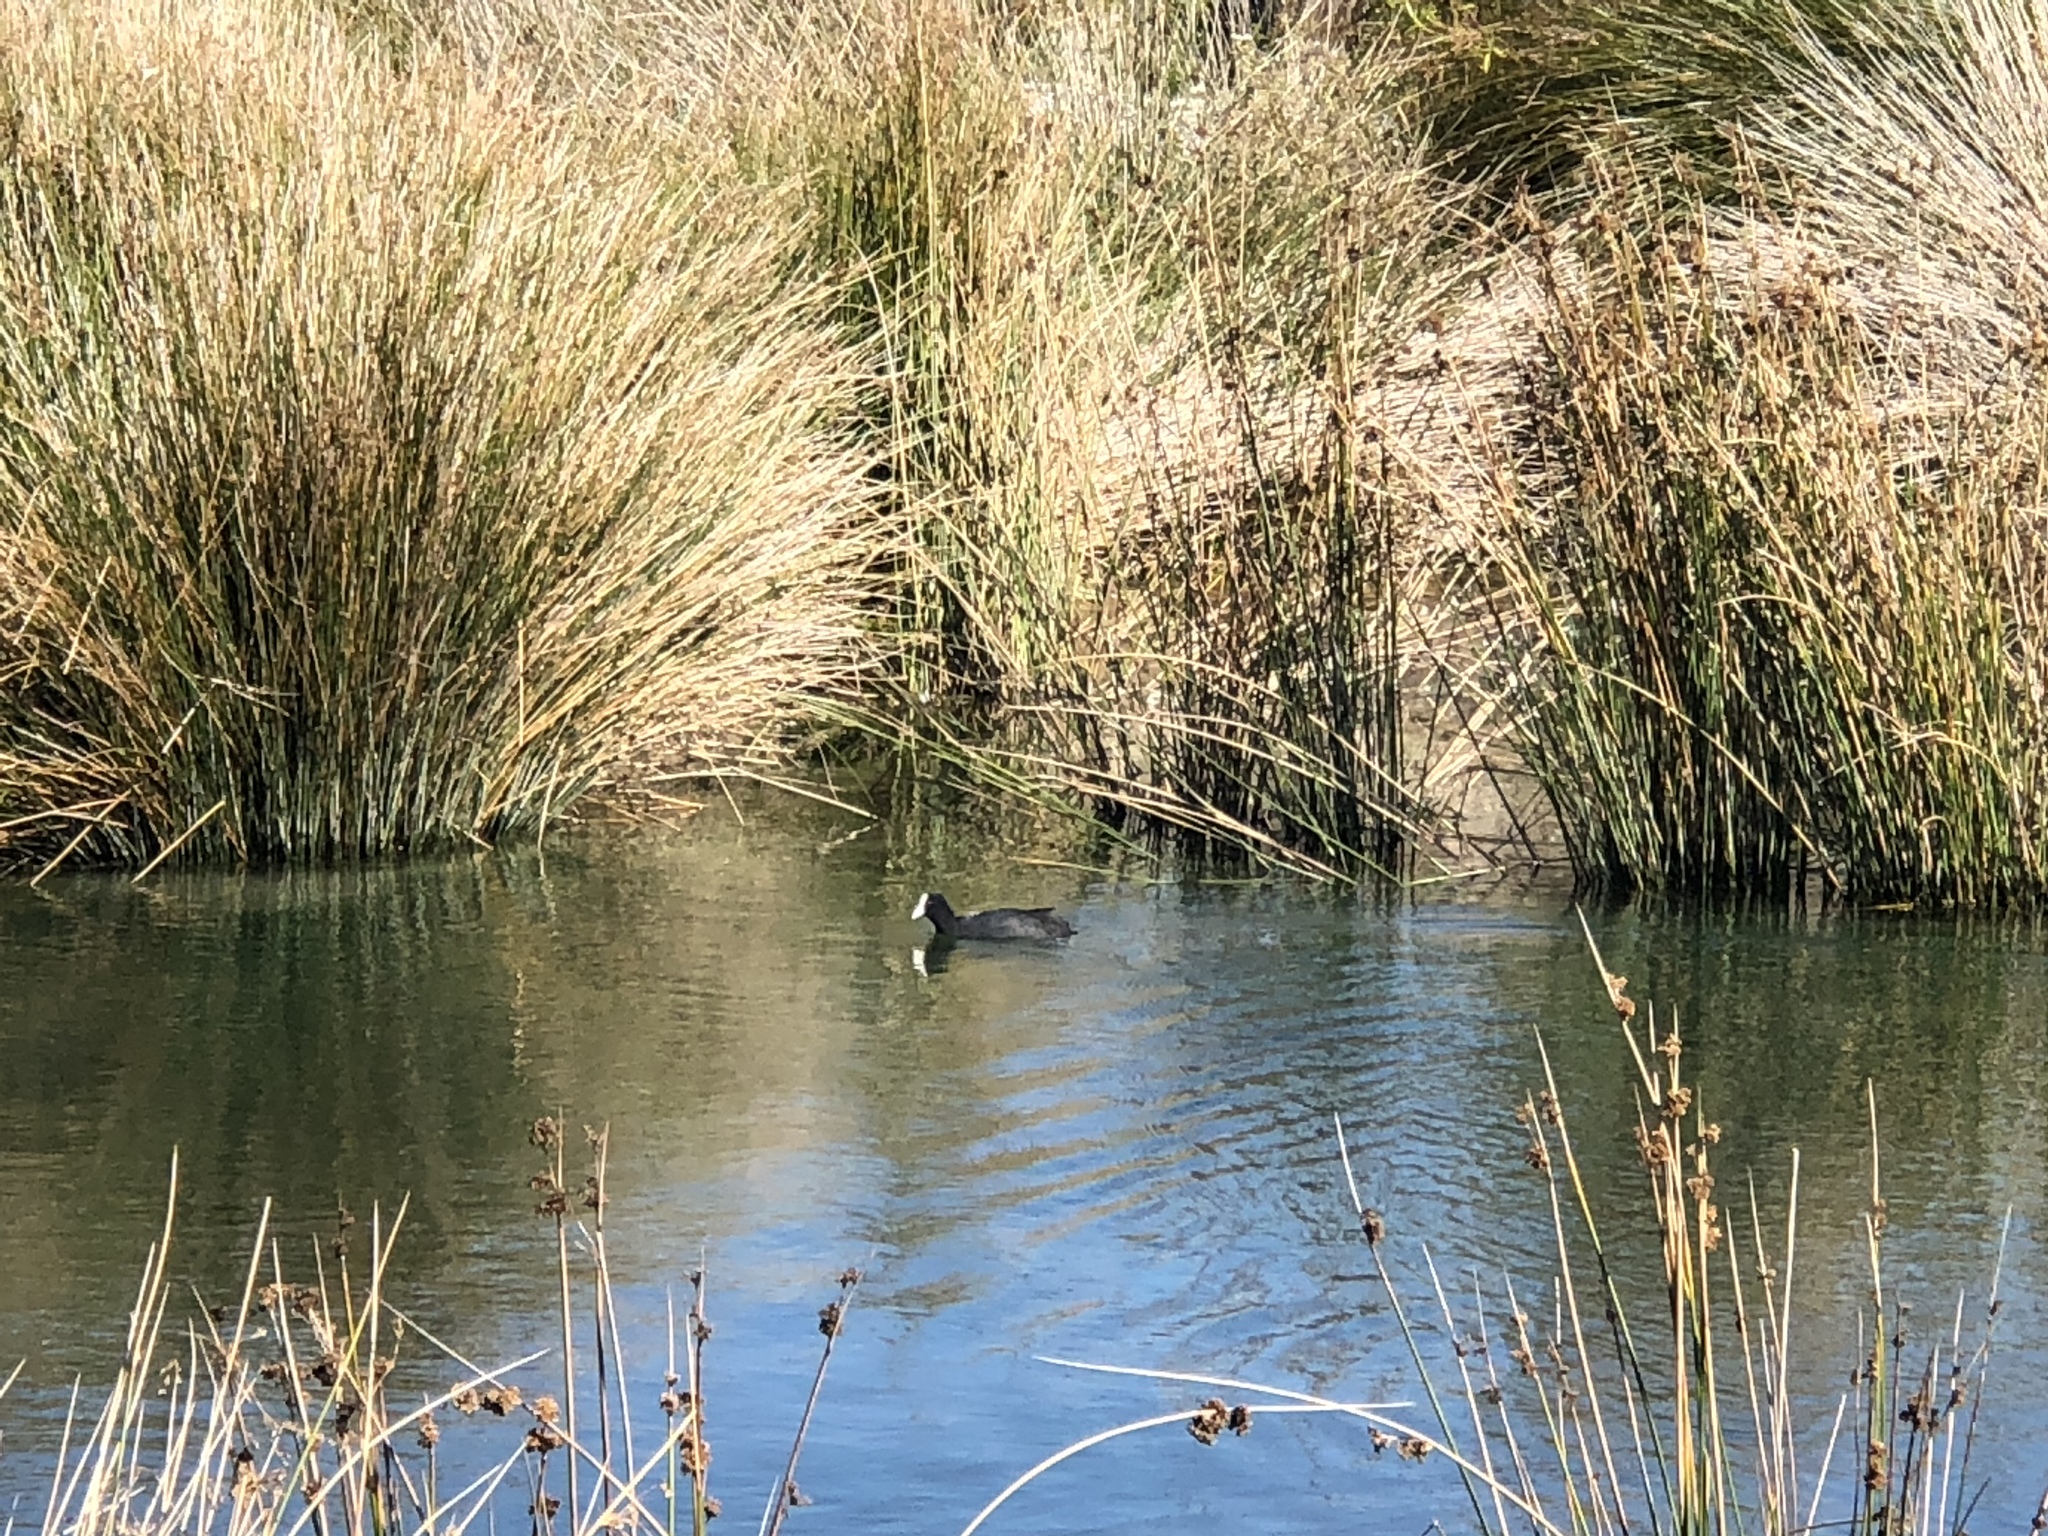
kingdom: Animalia
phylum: Chordata
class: Aves
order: Gruiformes
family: Rallidae
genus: Fulica
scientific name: Fulica atra
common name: Eurasian coot
